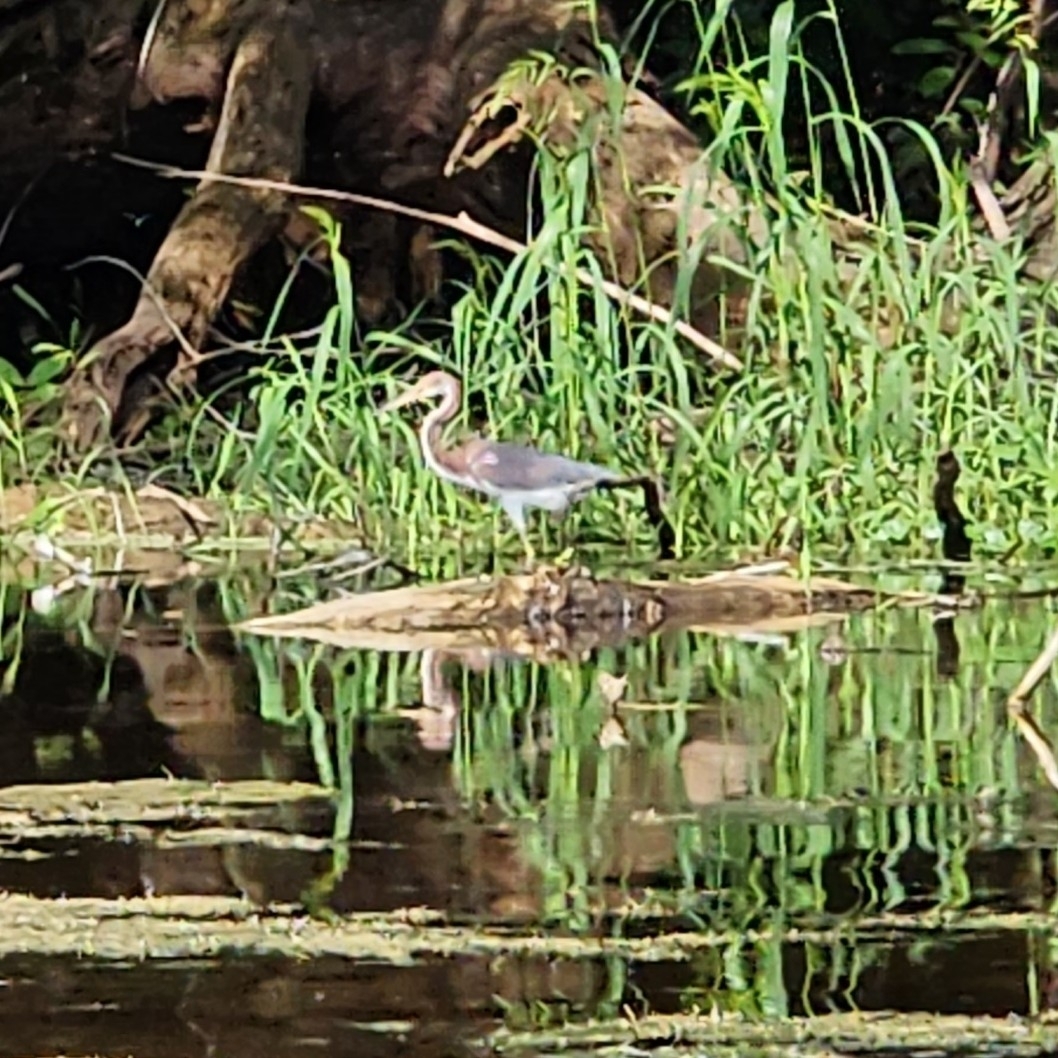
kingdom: Animalia
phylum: Chordata
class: Aves
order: Pelecaniformes
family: Ardeidae
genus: Egretta
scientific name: Egretta tricolor
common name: Tricolored heron
